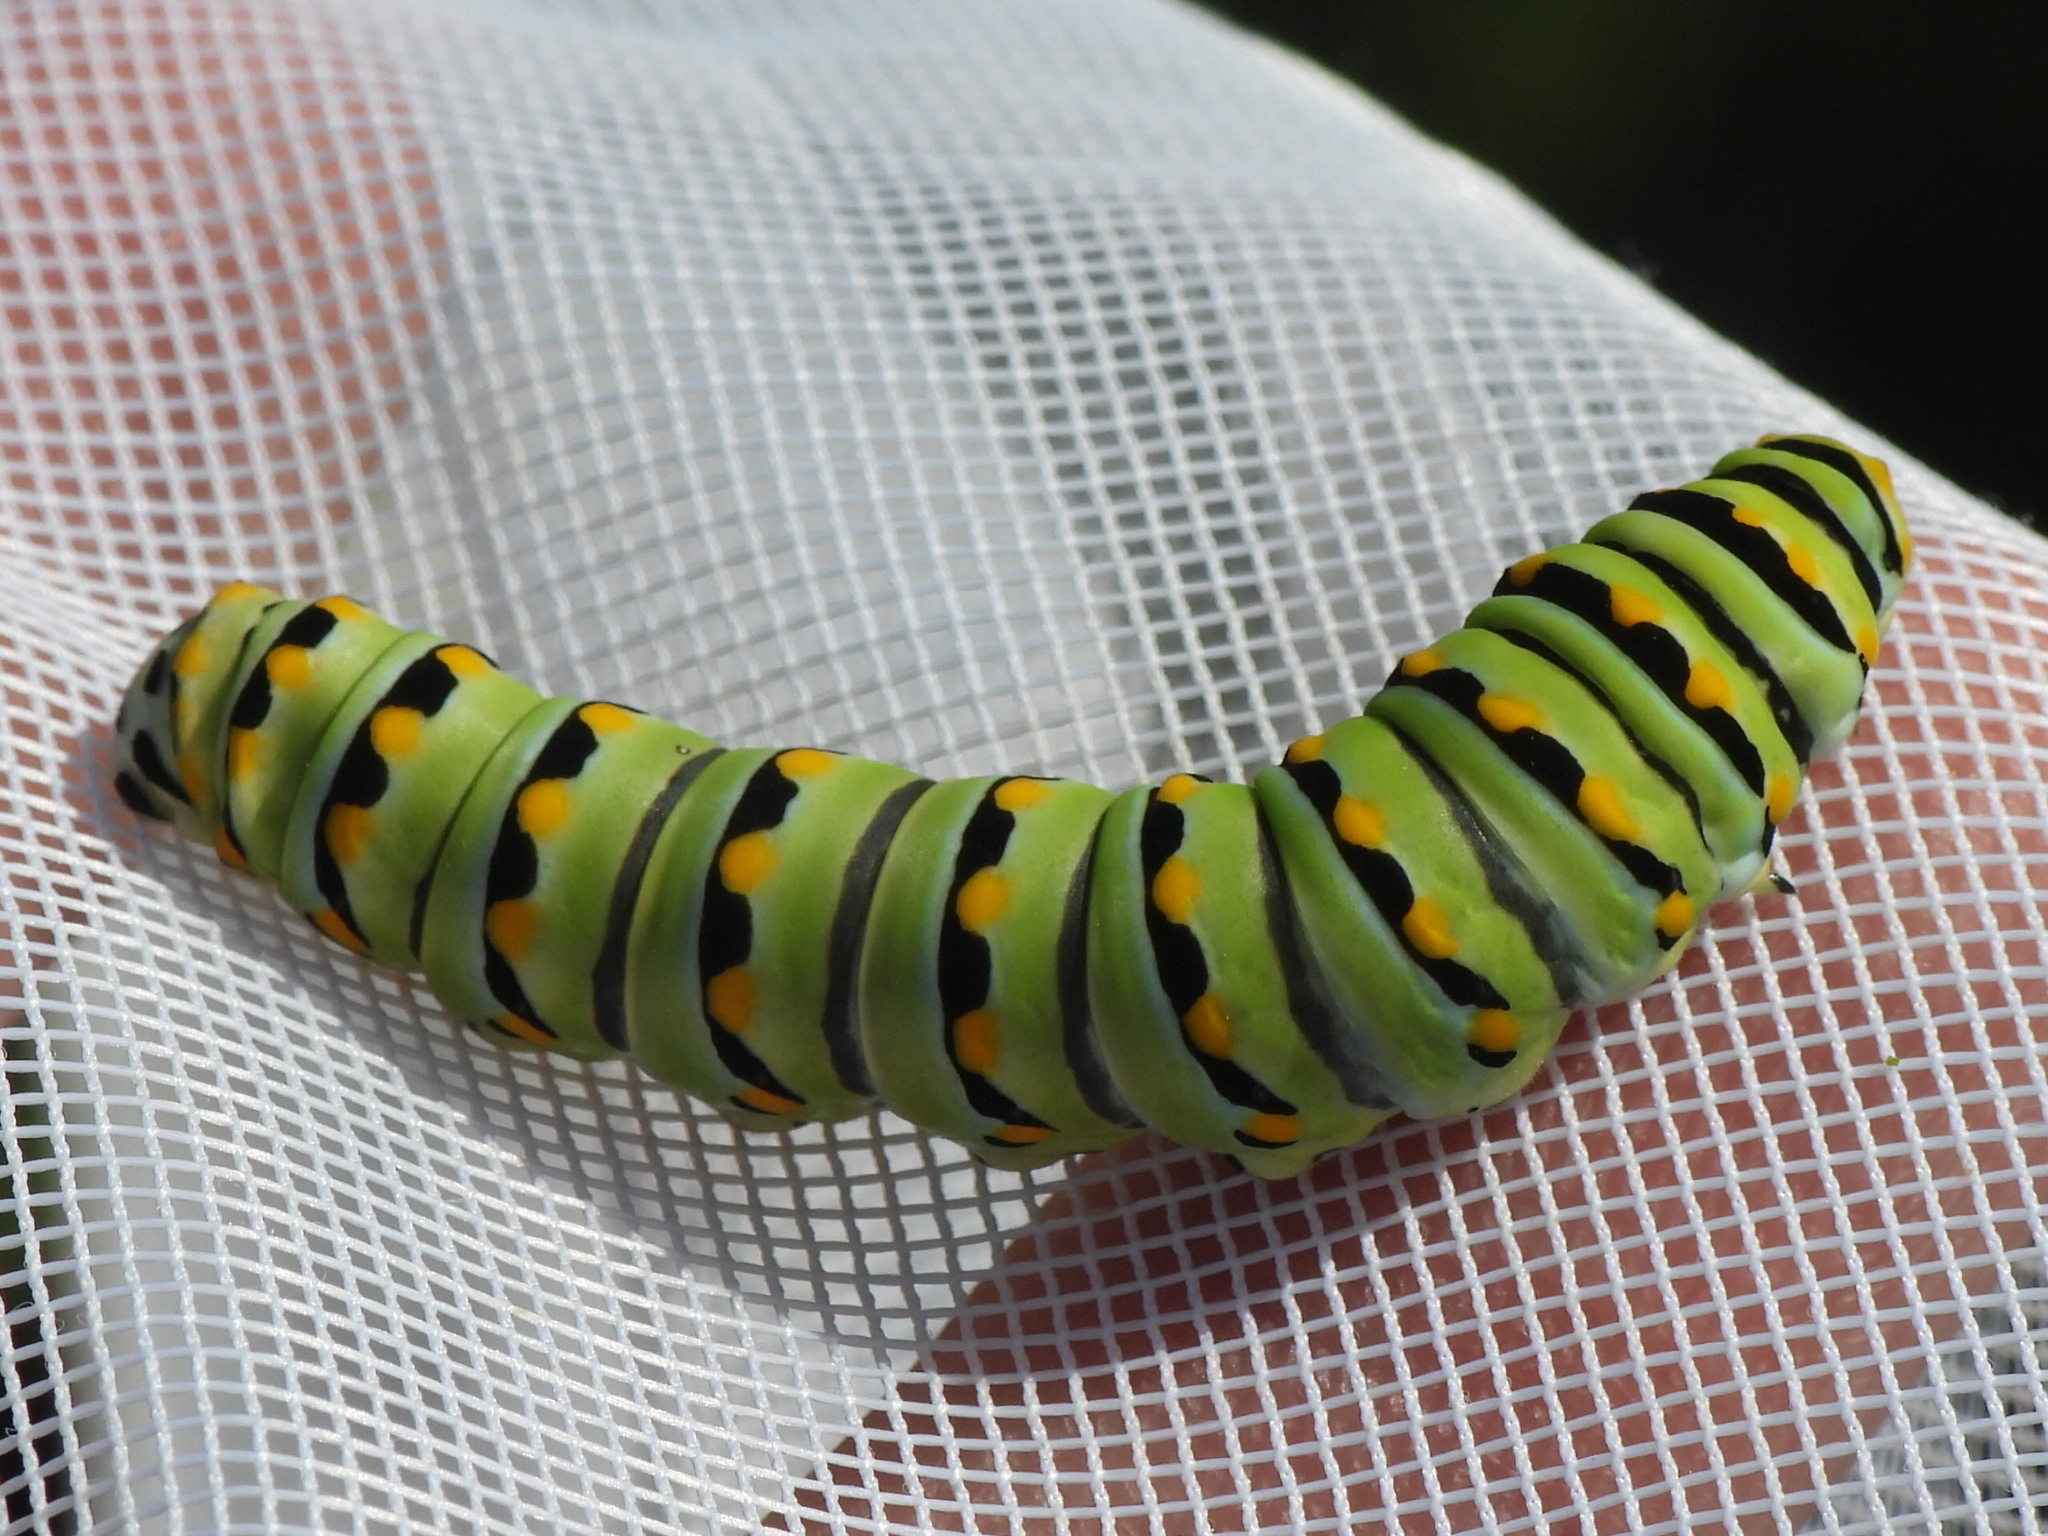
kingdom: Animalia
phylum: Arthropoda
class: Insecta
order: Lepidoptera
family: Papilionidae
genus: Papilio
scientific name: Papilio polyxenes
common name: Black swallowtail
